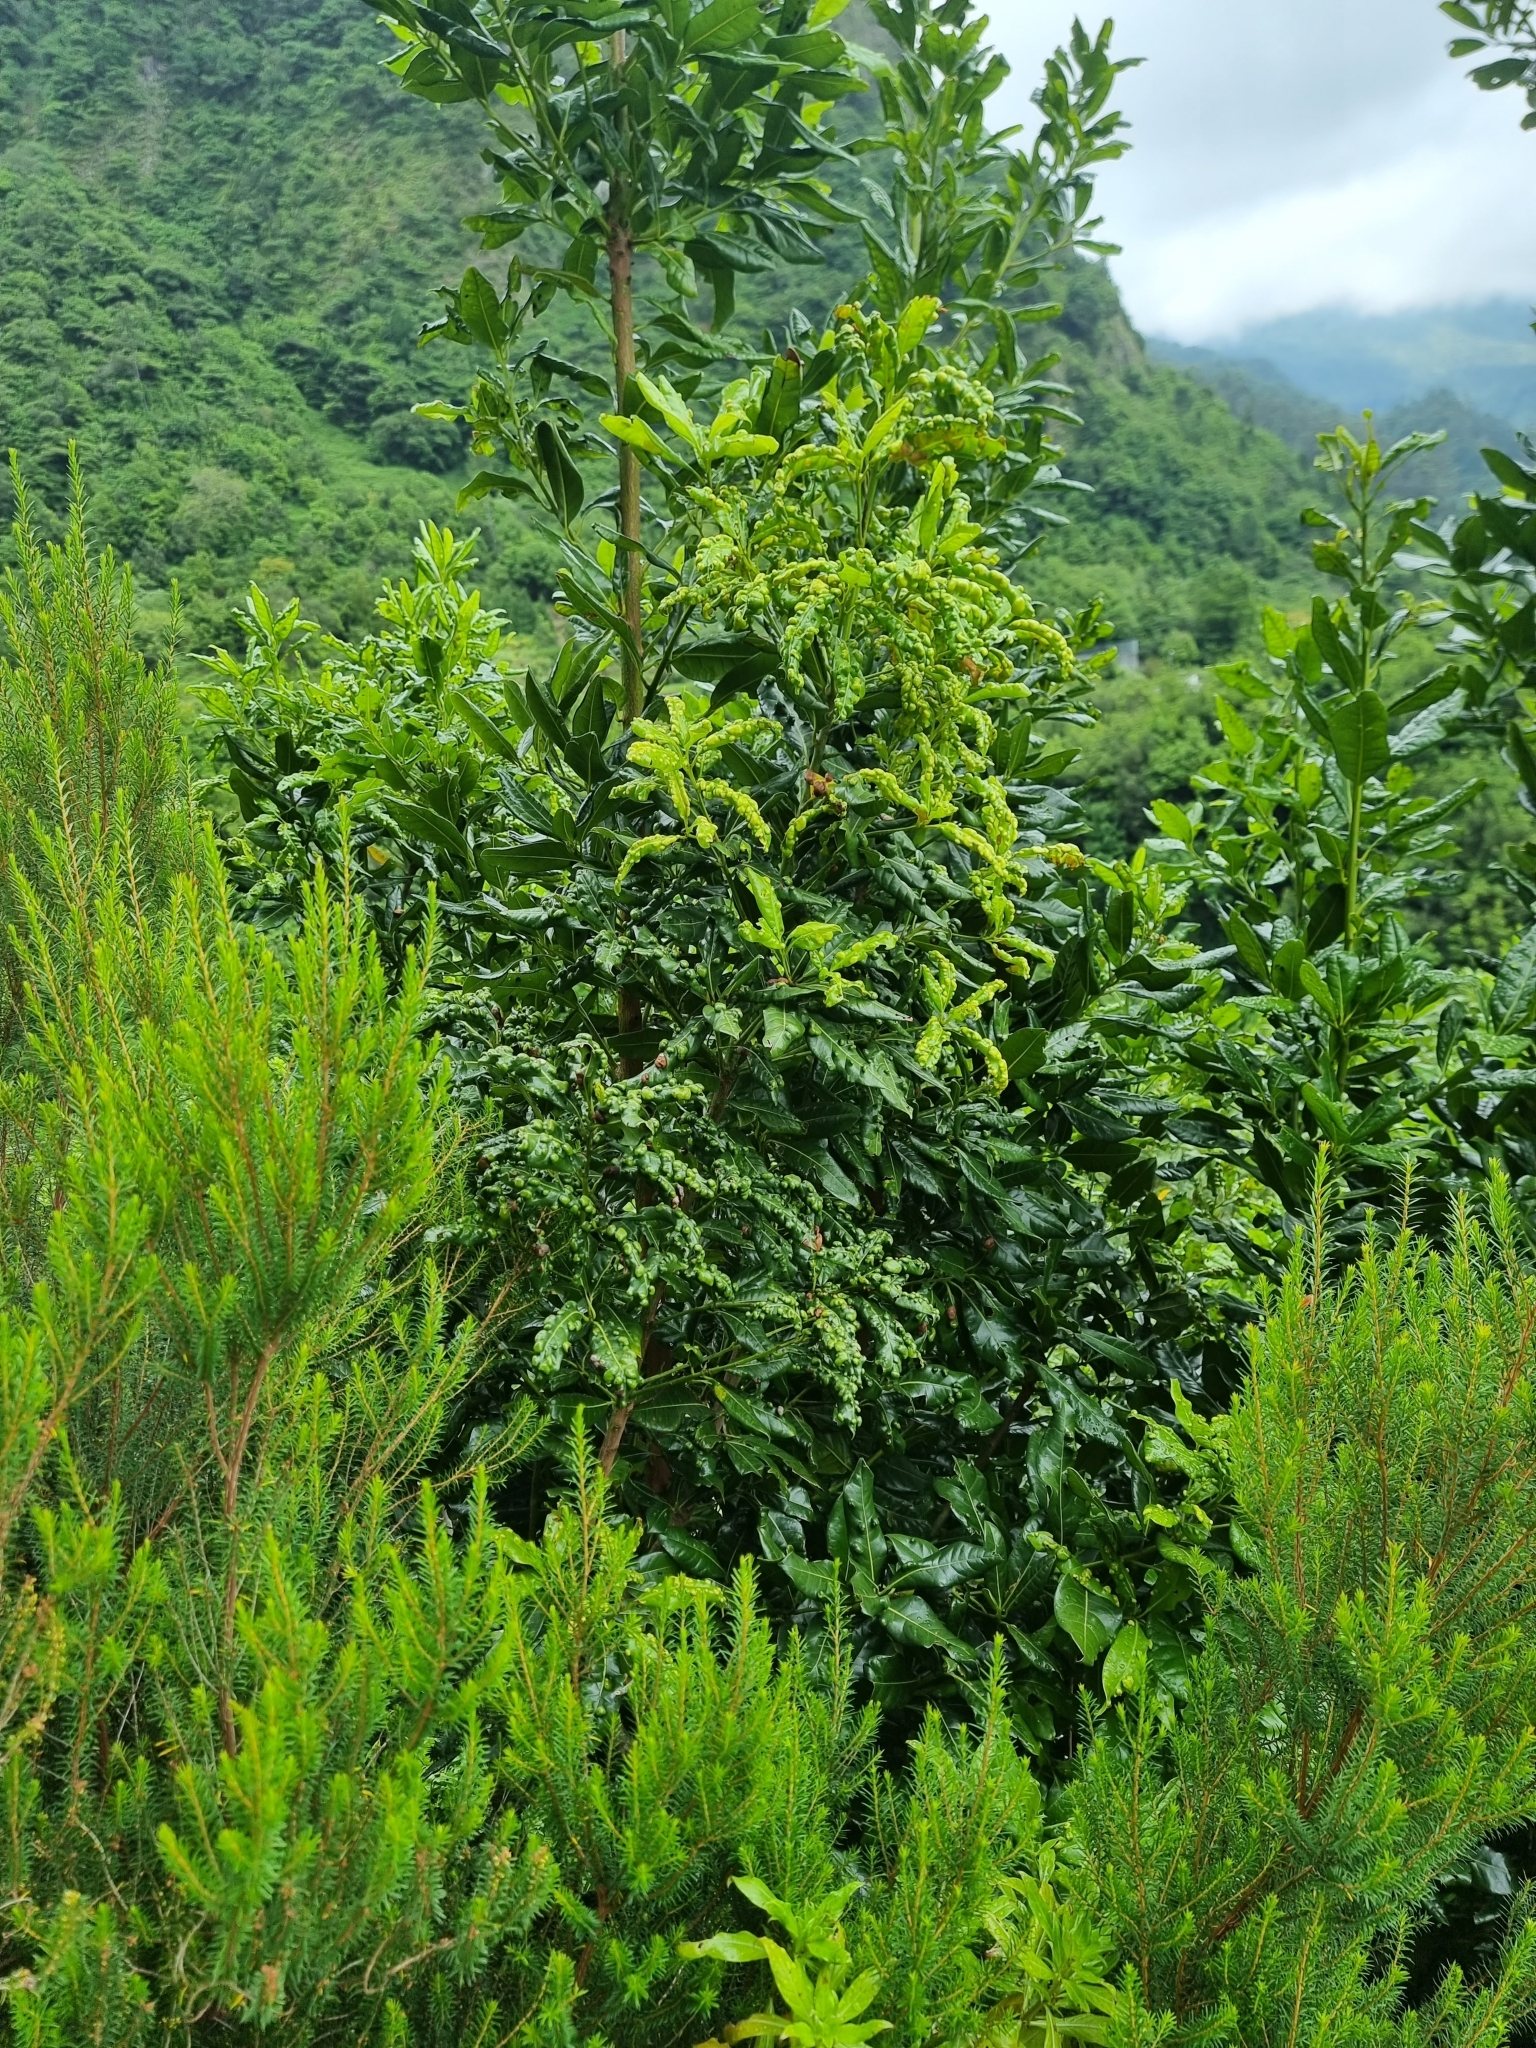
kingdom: Plantae
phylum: Tracheophyta
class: Magnoliopsida
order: Laurales
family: Lauraceae
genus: Apollonias
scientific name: Apollonias barbujana
